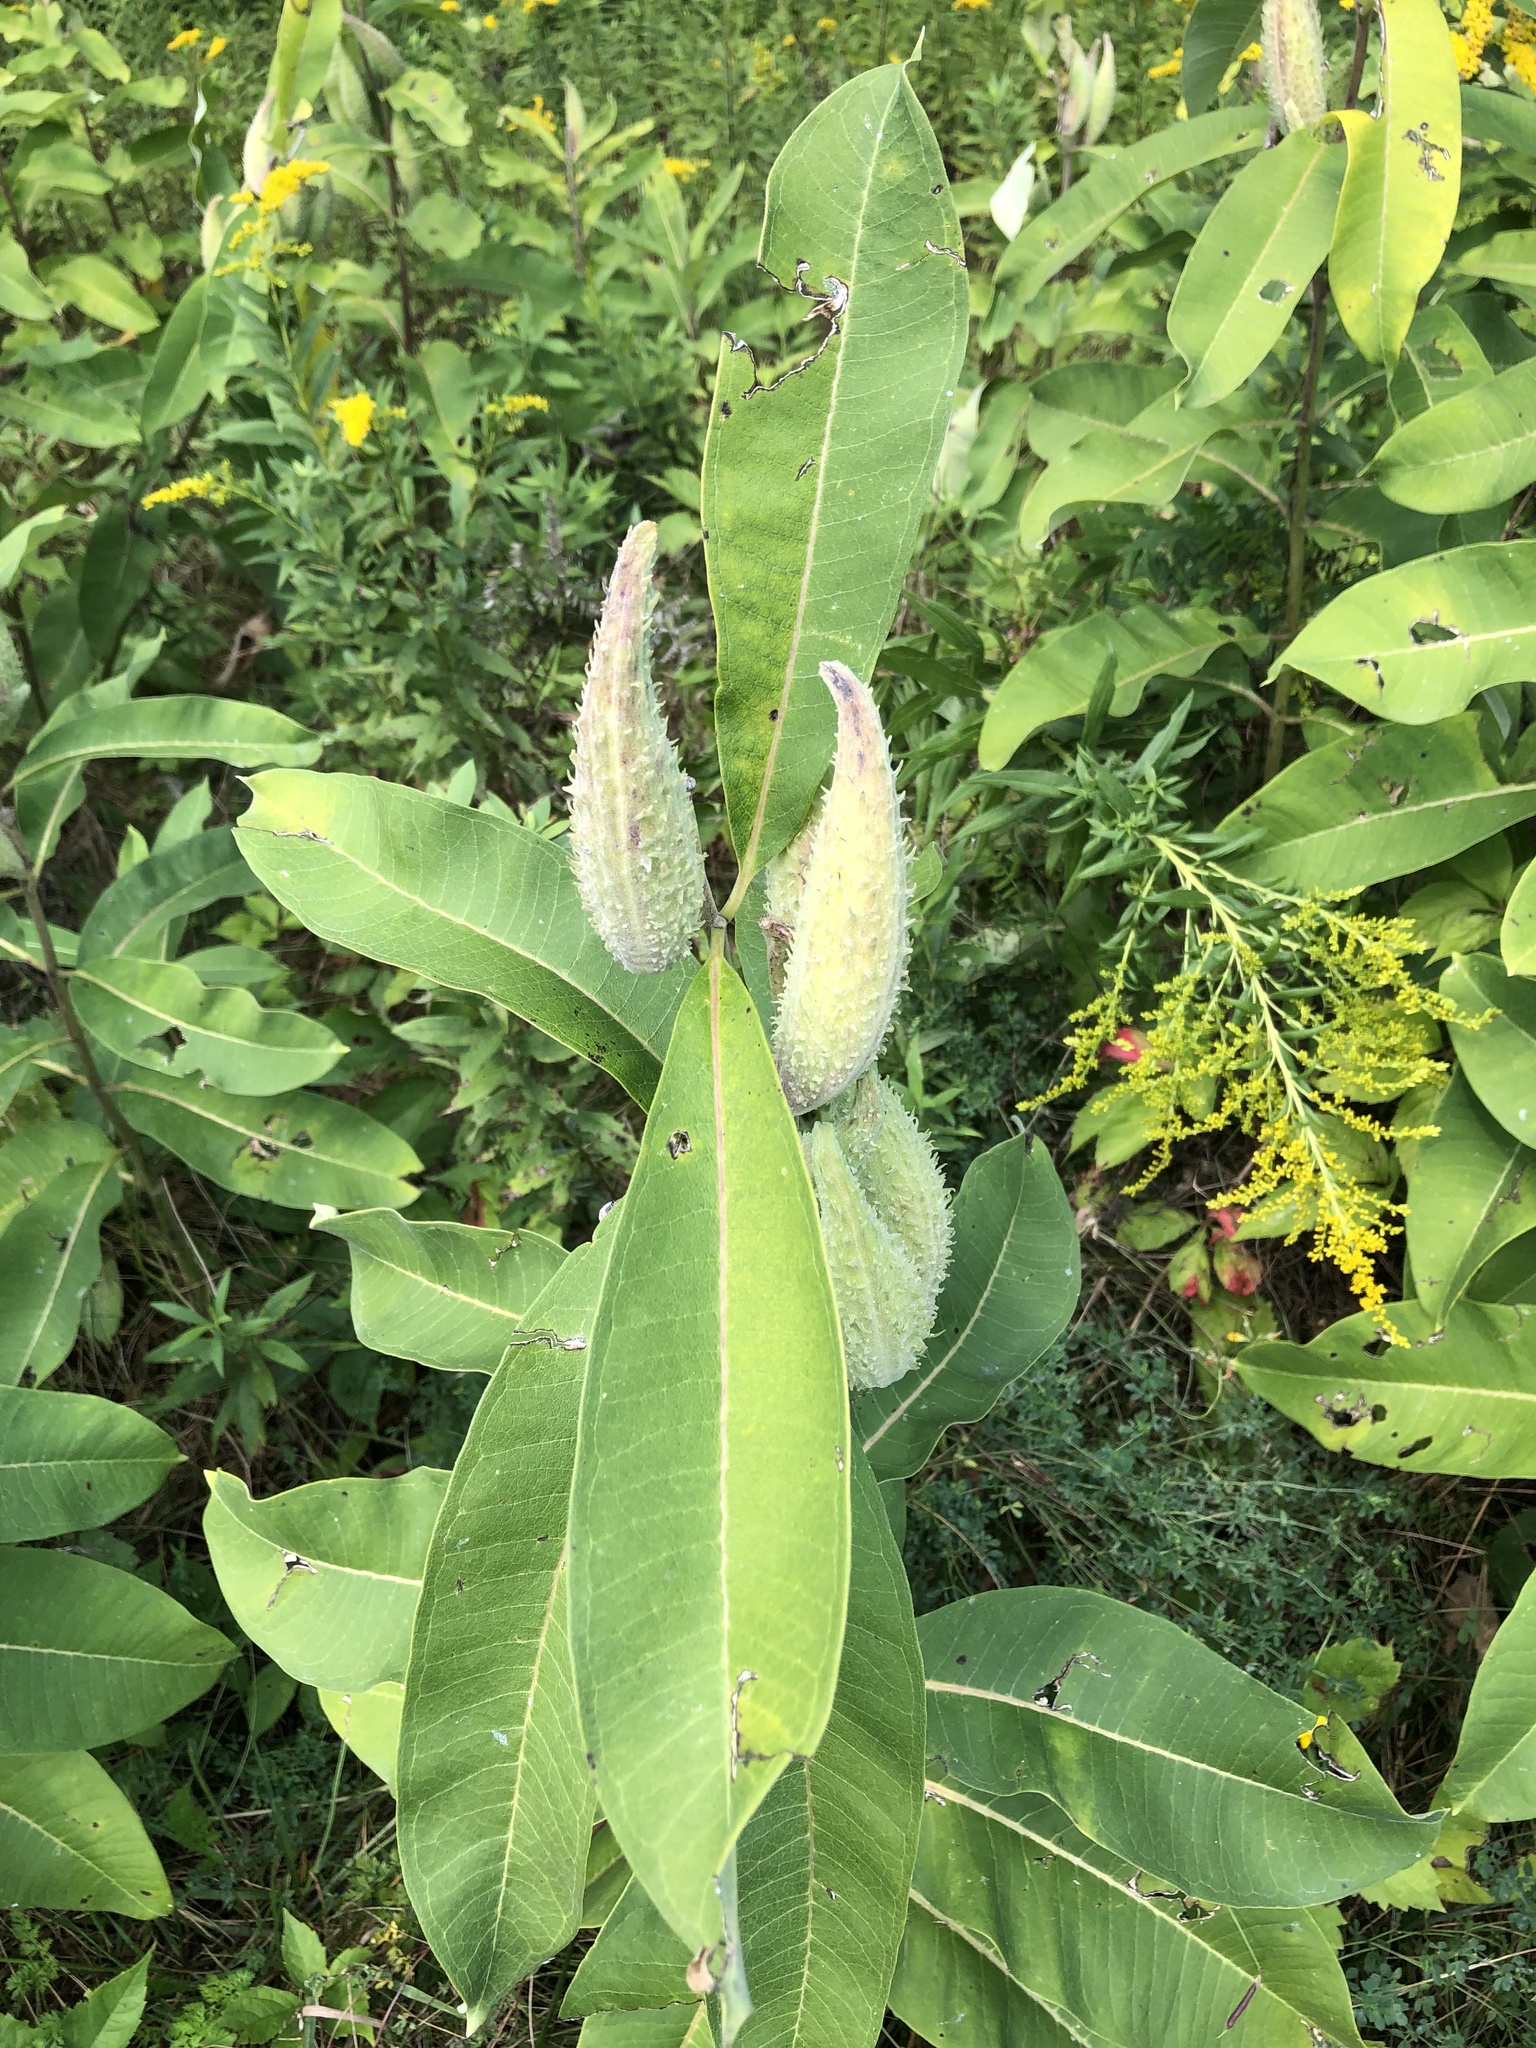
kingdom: Plantae
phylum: Tracheophyta
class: Magnoliopsida
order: Gentianales
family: Apocynaceae
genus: Asclepias
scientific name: Asclepias syriaca
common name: Common milkweed
